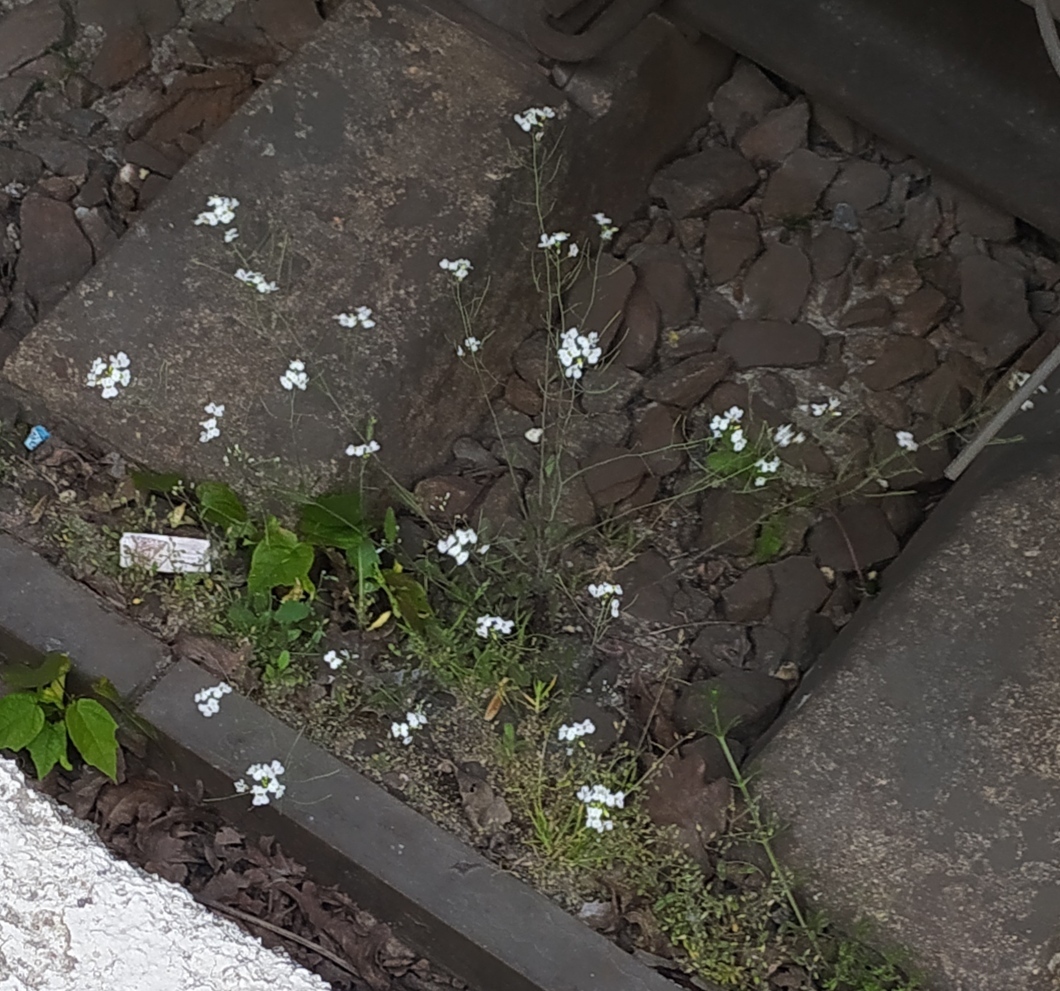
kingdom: Plantae
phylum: Tracheophyta
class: Magnoliopsida
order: Brassicales
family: Brassicaceae
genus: Arabidopsis
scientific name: Arabidopsis arenosa
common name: Sand rock-cress
